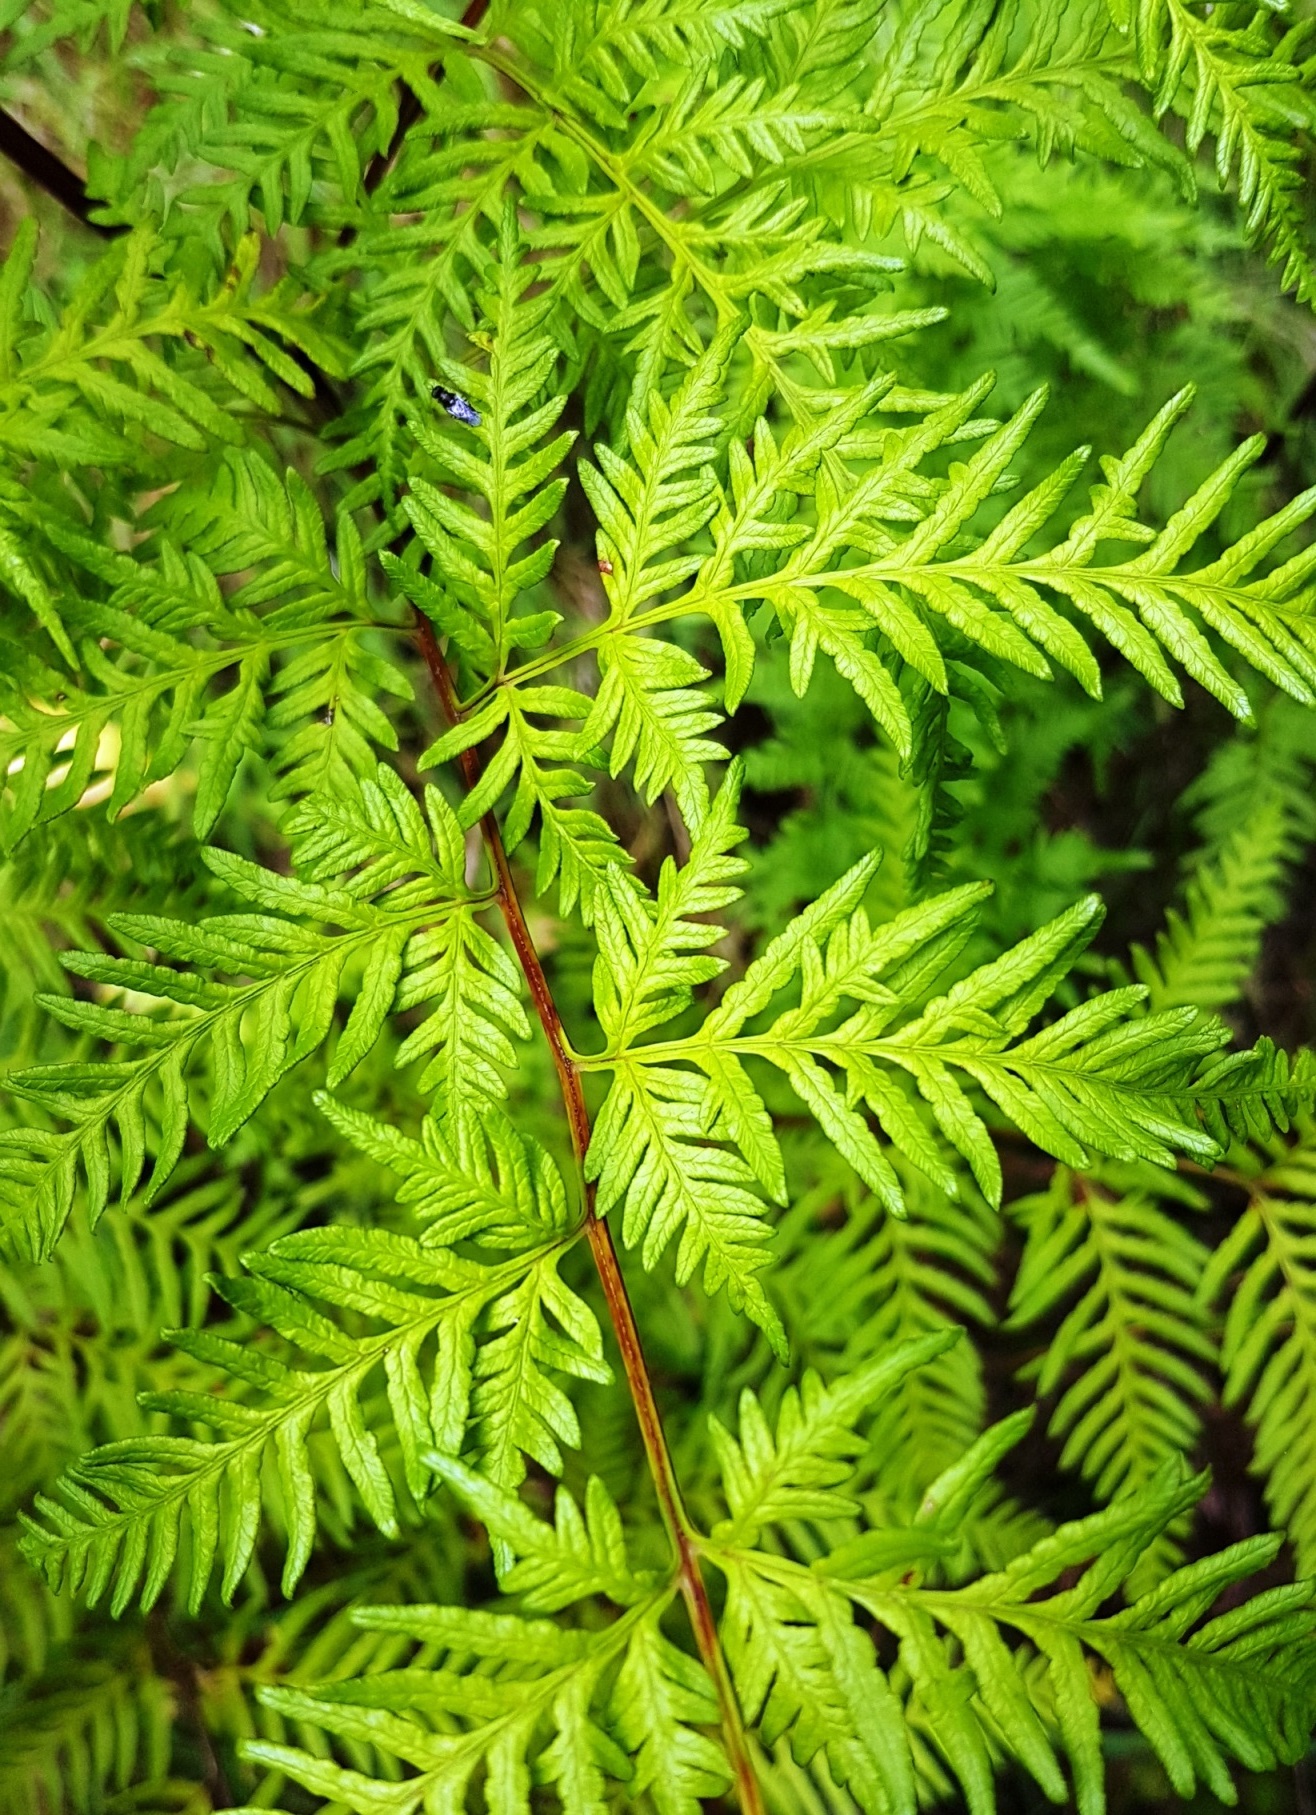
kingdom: Plantae
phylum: Tracheophyta
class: Polypodiopsida
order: Polypodiales
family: Pteridaceae
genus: Pteris
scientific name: Pteris tremula
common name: Australian brake
